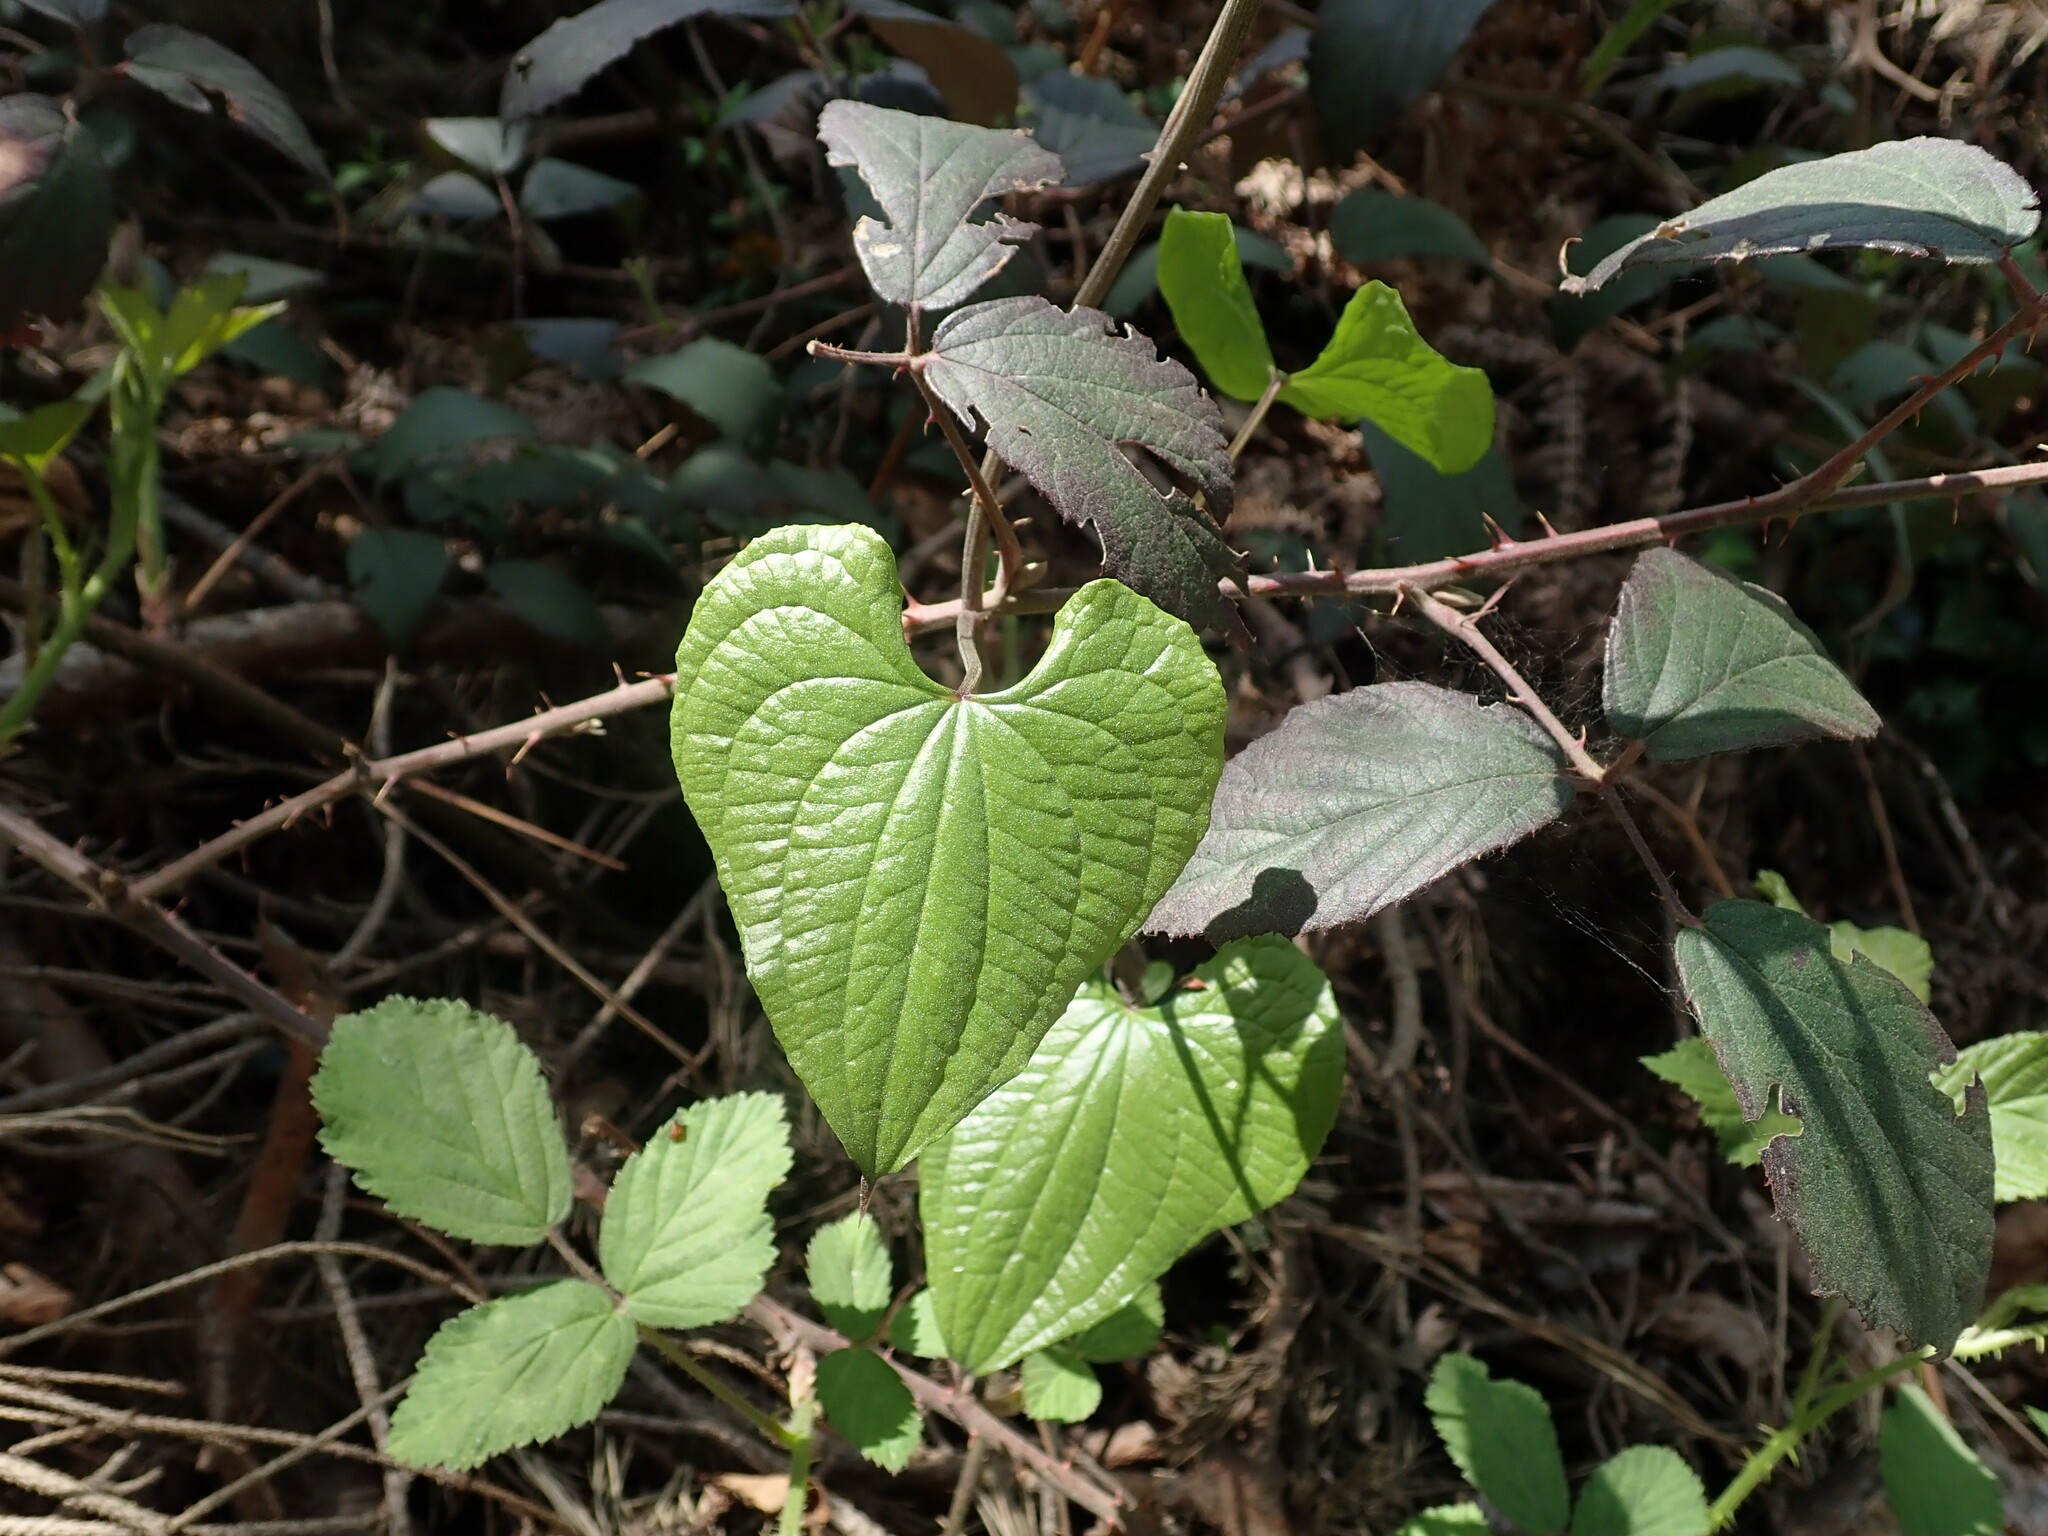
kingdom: Plantae
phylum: Tracheophyta
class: Liliopsida
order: Dioscoreales
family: Dioscoreaceae
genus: Dioscorea
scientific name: Dioscorea communis
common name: Black-bindweed
